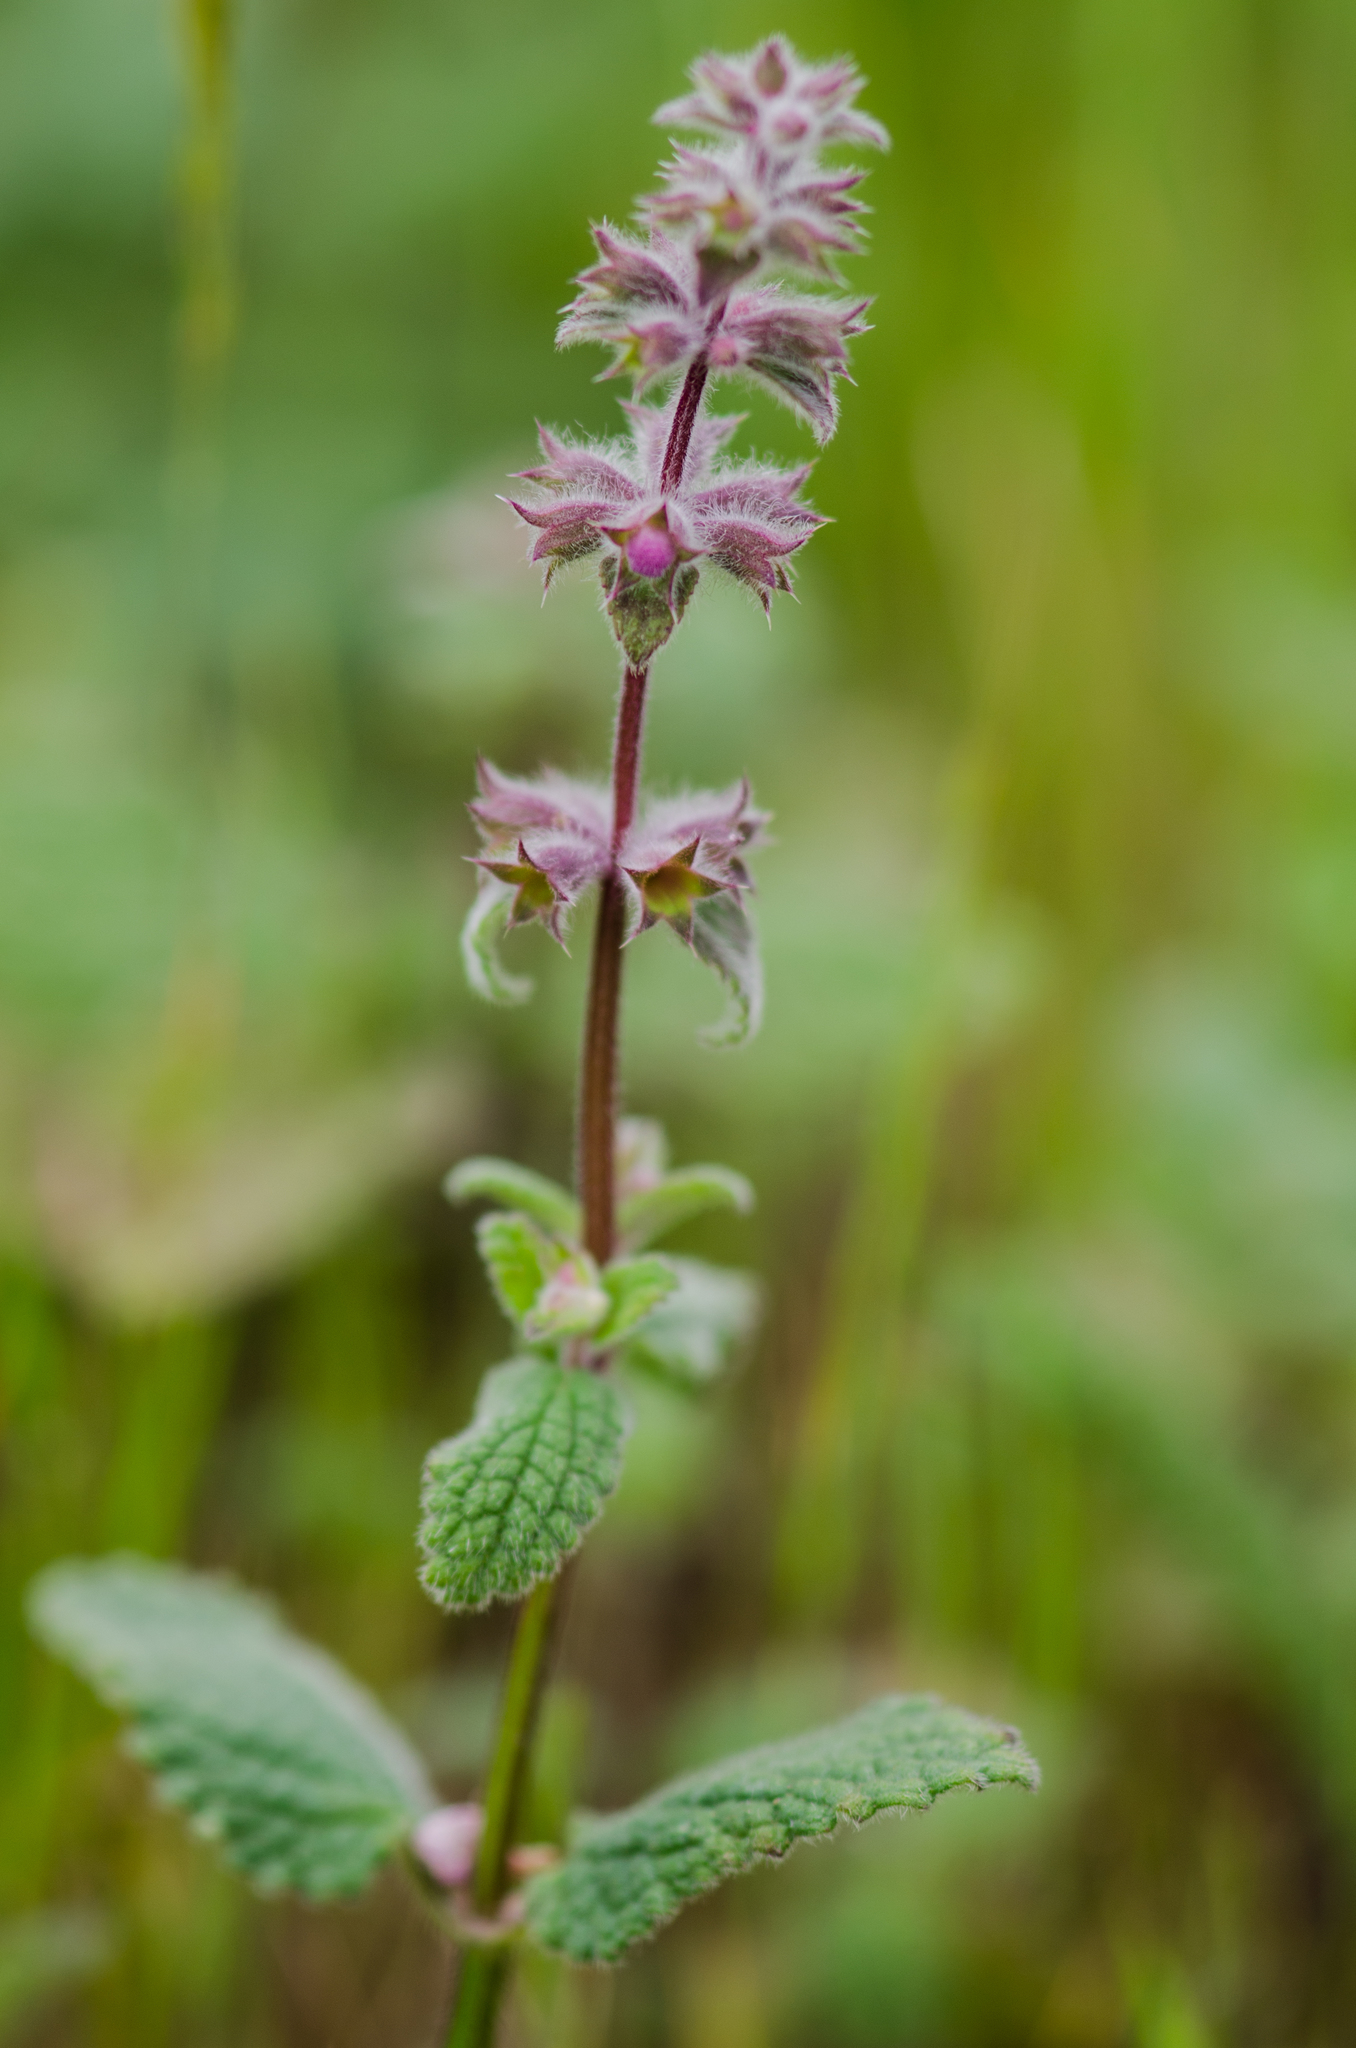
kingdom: Plantae
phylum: Tracheophyta
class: Magnoliopsida
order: Lamiales
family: Lamiaceae
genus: Stachys
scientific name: Stachys rigida
